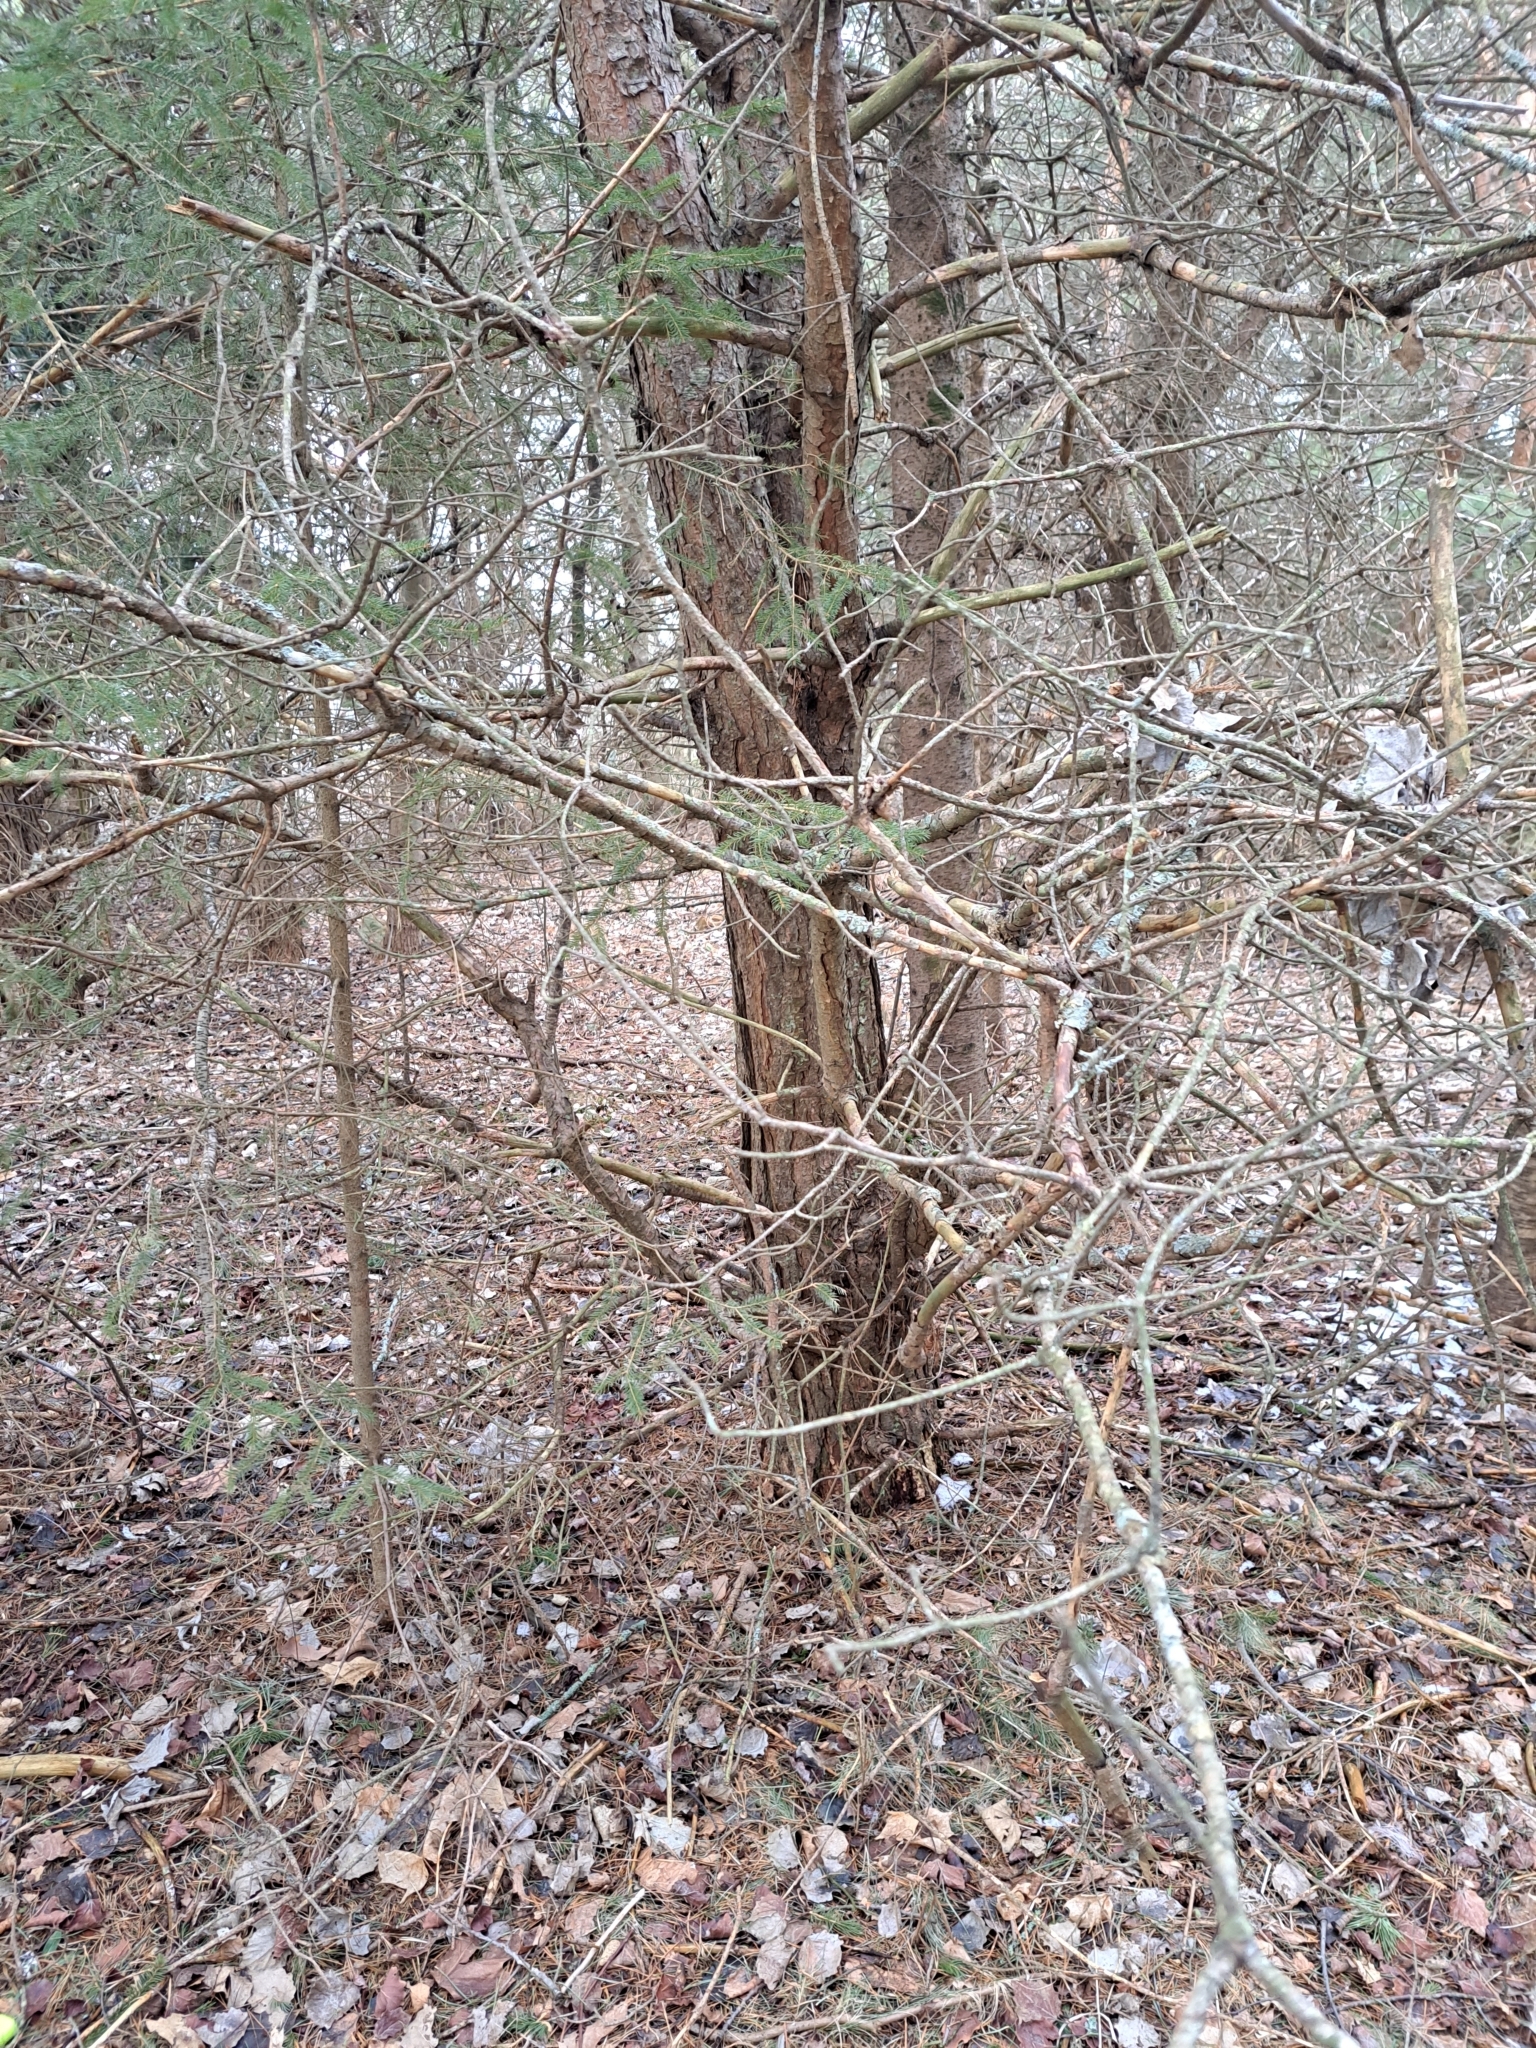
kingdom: Fungi
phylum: Ascomycota
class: Lecanoromycetes
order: Lecanorales
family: Parmeliaceae
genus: Platismatia
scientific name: Platismatia tuckermanii
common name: Crumpled rag lichen
